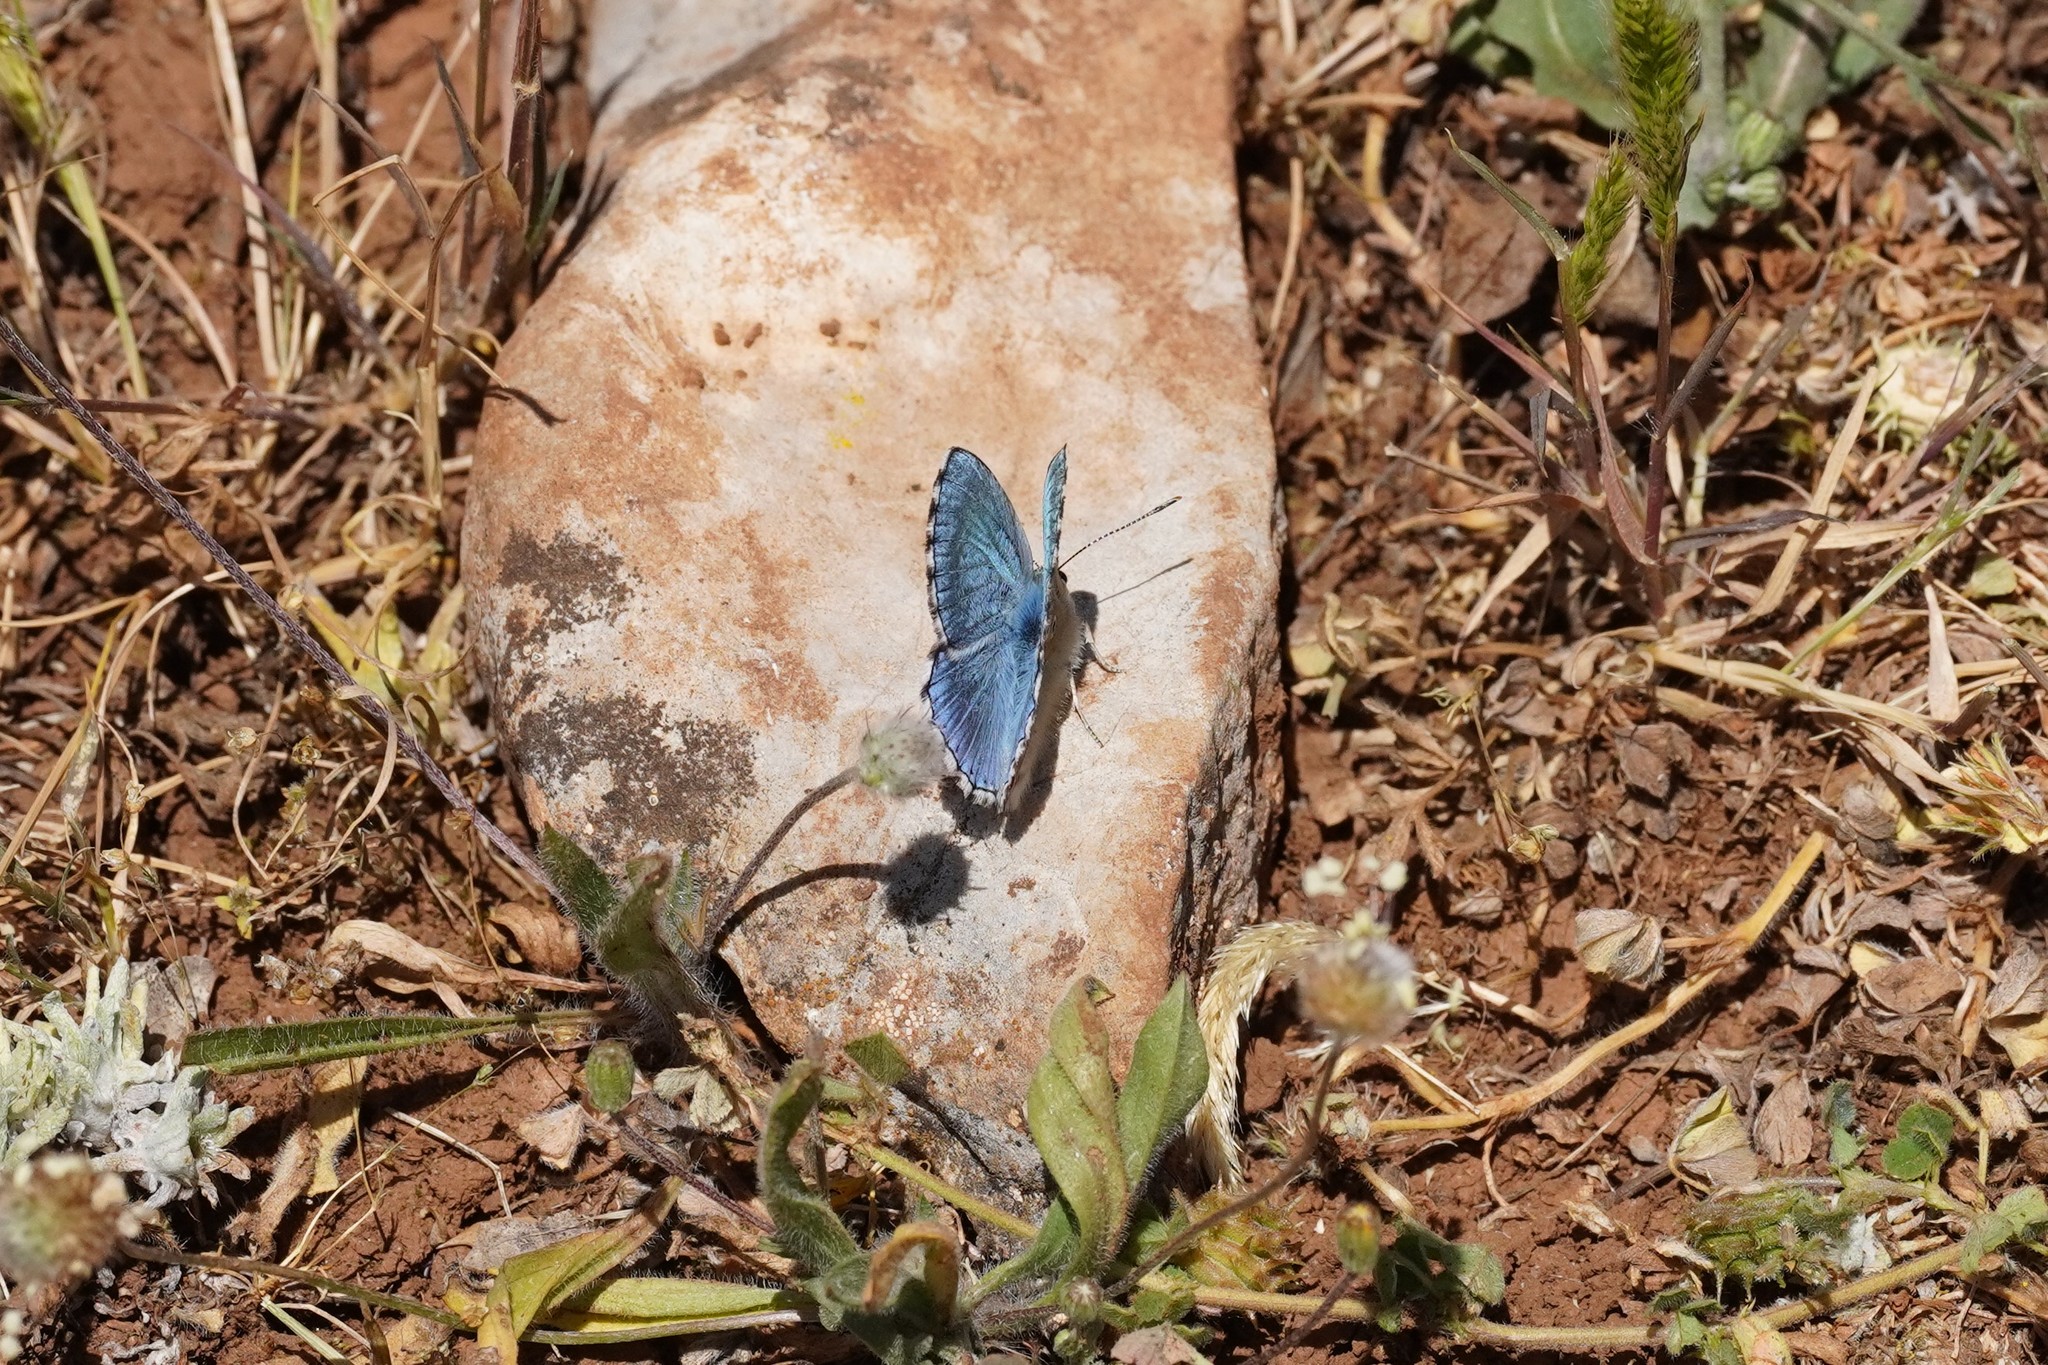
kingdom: Animalia
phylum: Arthropoda
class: Insecta
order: Lepidoptera
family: Lycaenidae
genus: Lysandra
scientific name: Lysandra bellargus
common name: Adonis blue
